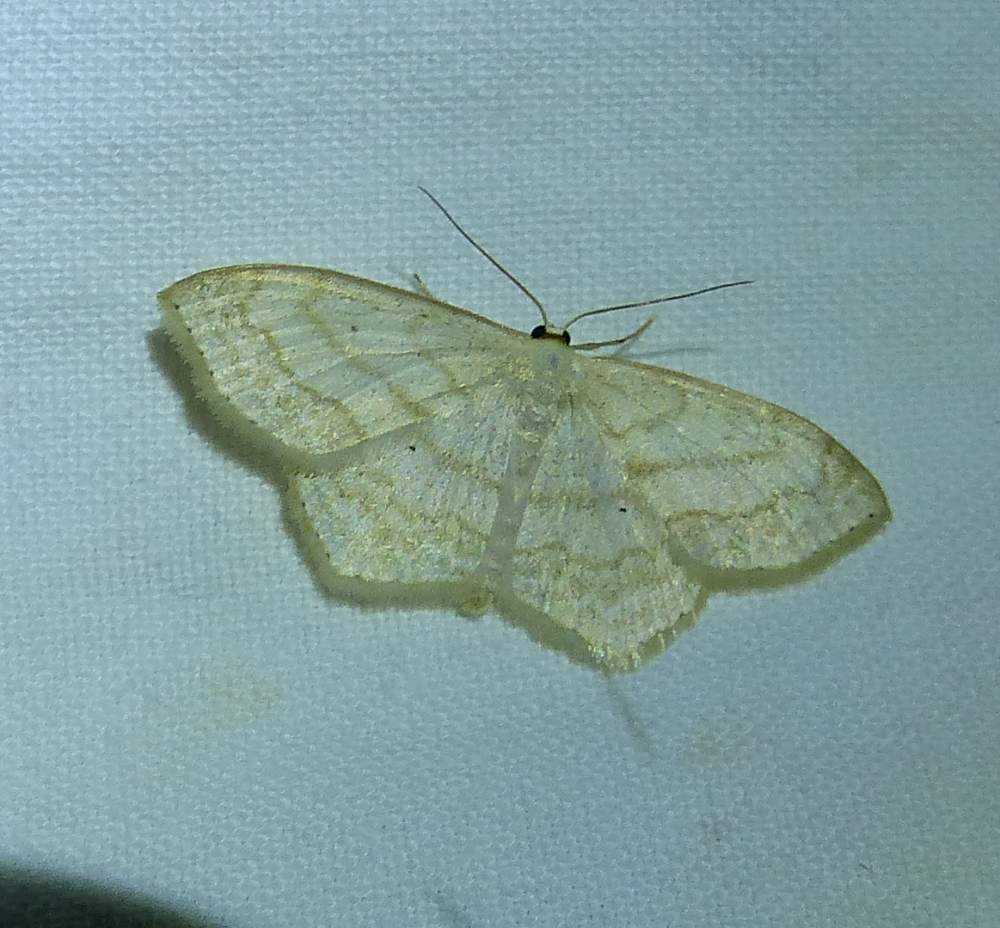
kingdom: Animalia
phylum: Arthropoda
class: Insecta
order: Lepidoptera
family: Geometridae
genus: Scopula
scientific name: Scopula limboundata
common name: Large lace border
